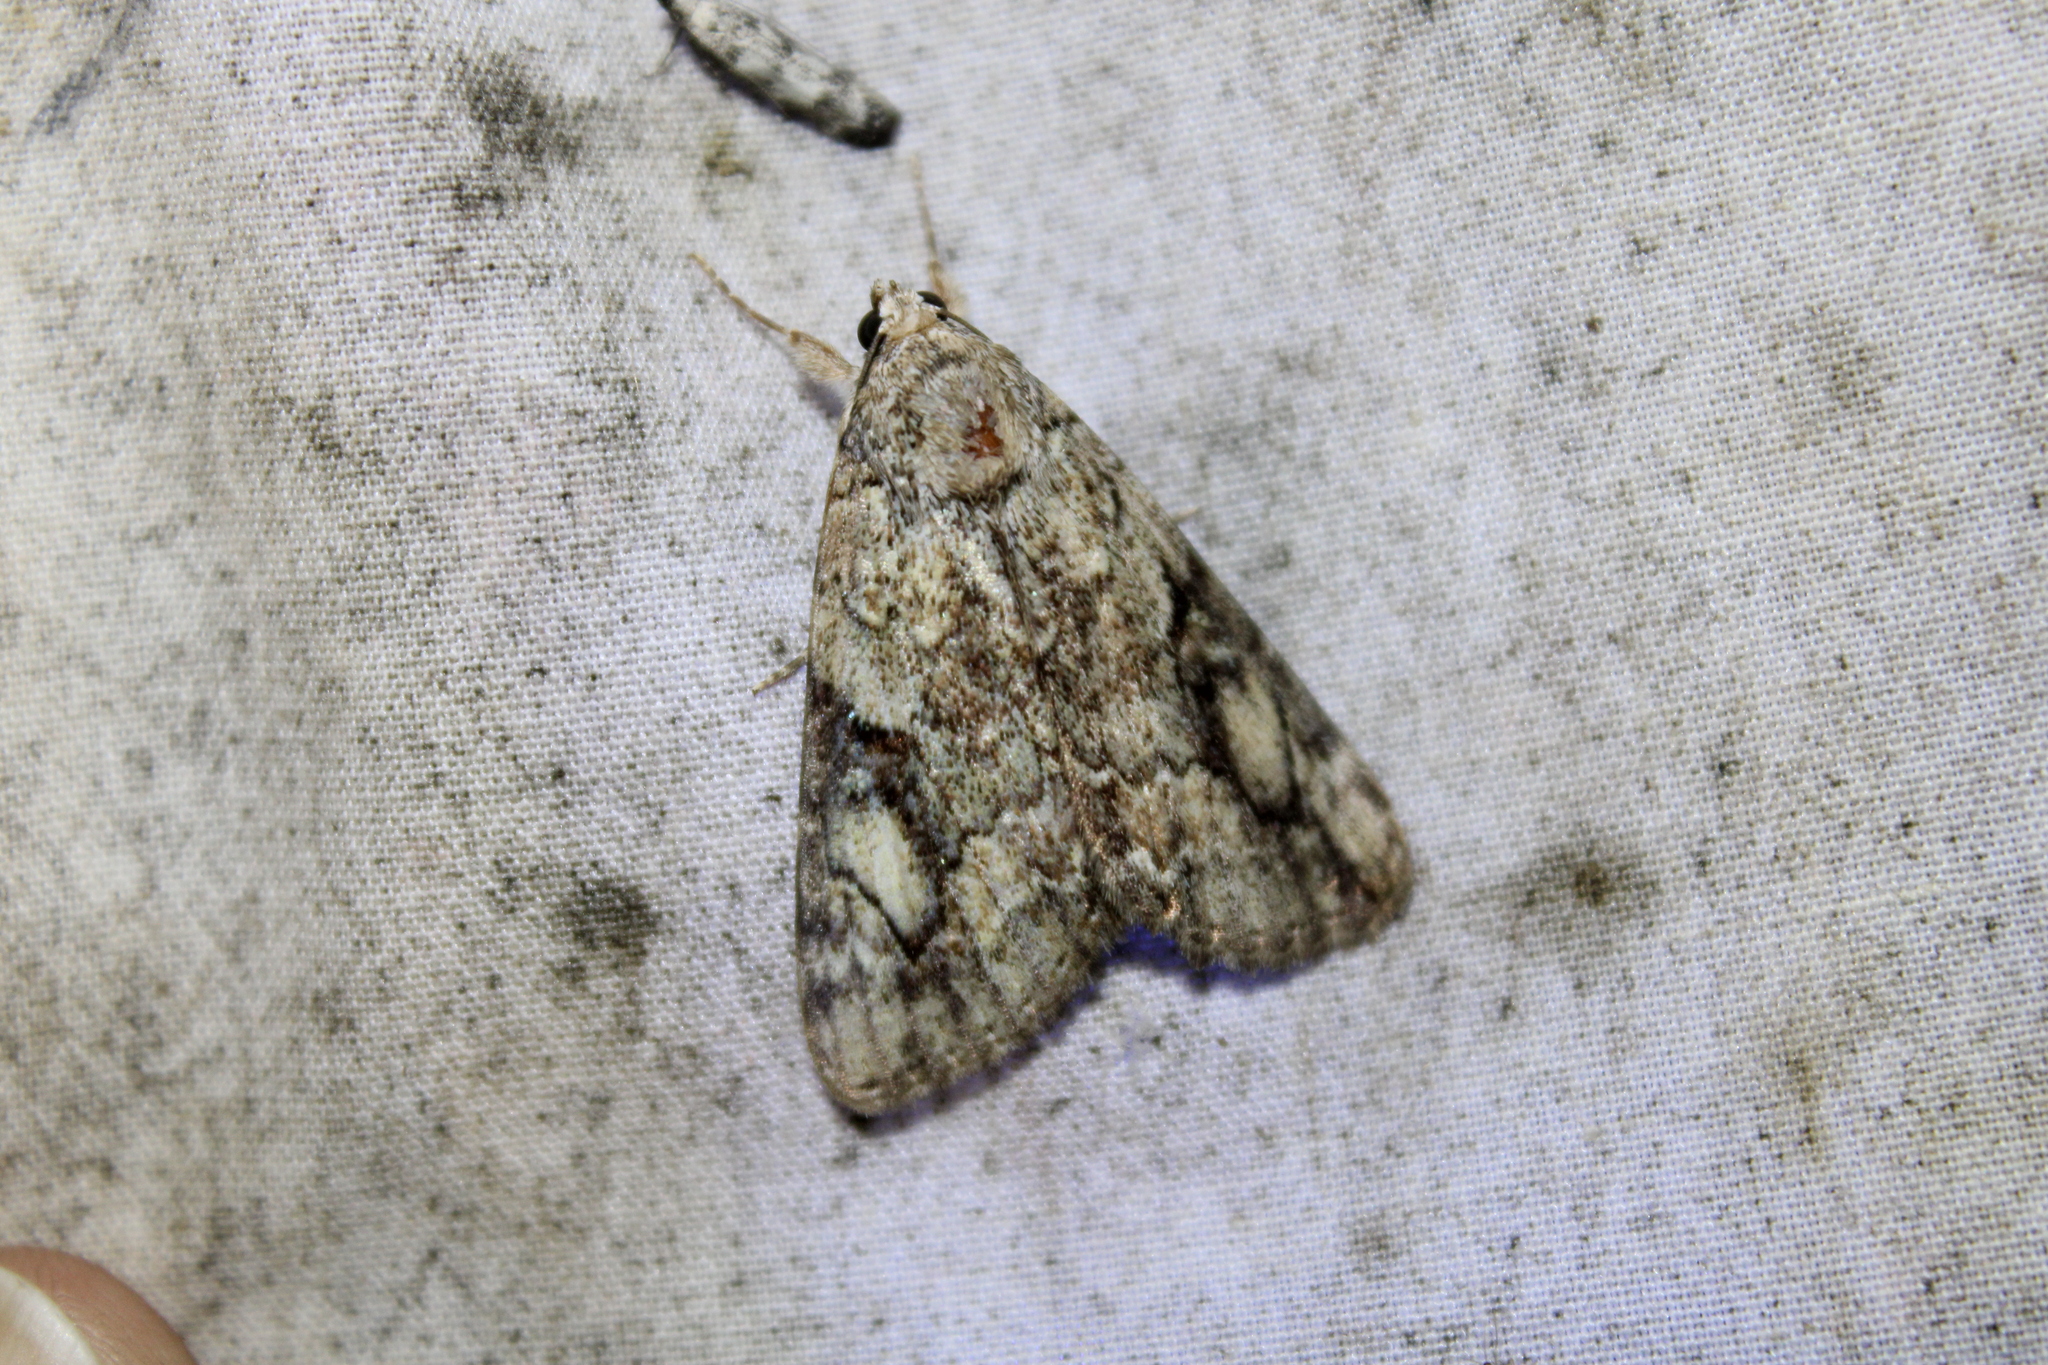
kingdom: Animalia
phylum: Arthropoda
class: Insecta
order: Lepidoptera
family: Erebidae
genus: Catocala
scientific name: Catocala micronympha
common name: Little nymph underwing
